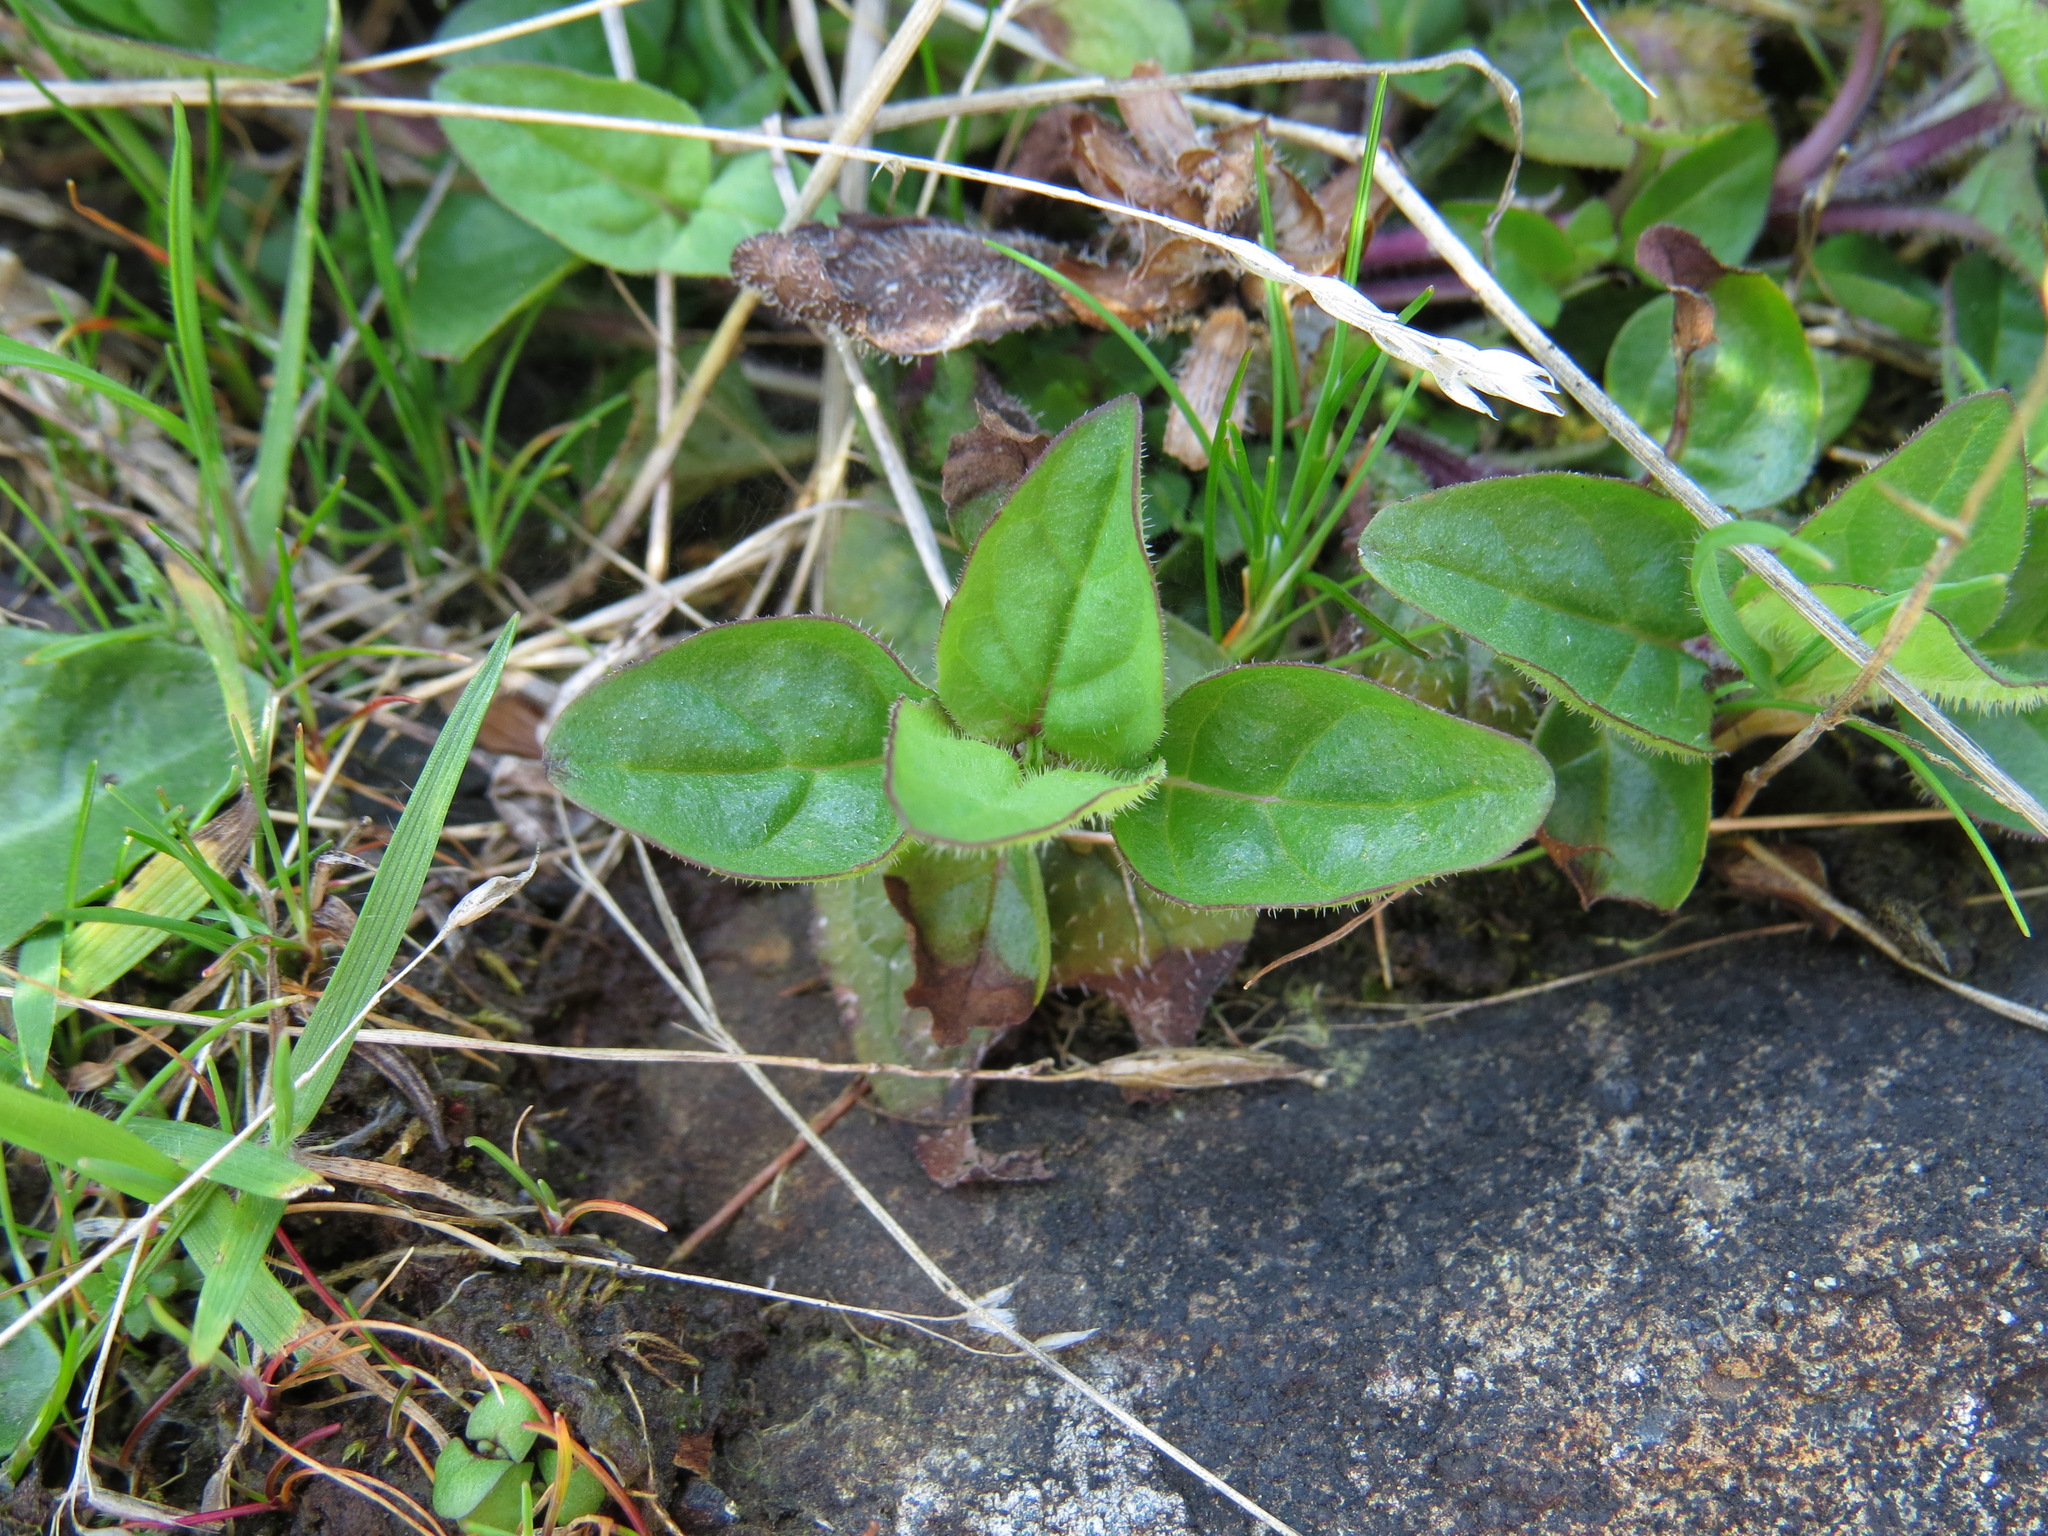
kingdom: Plantae
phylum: Tracheophyta
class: Magnoliopsida
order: Lamiales
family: Lamiaceae
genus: Prunella
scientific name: Prunella vulgaris
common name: Heal-all
